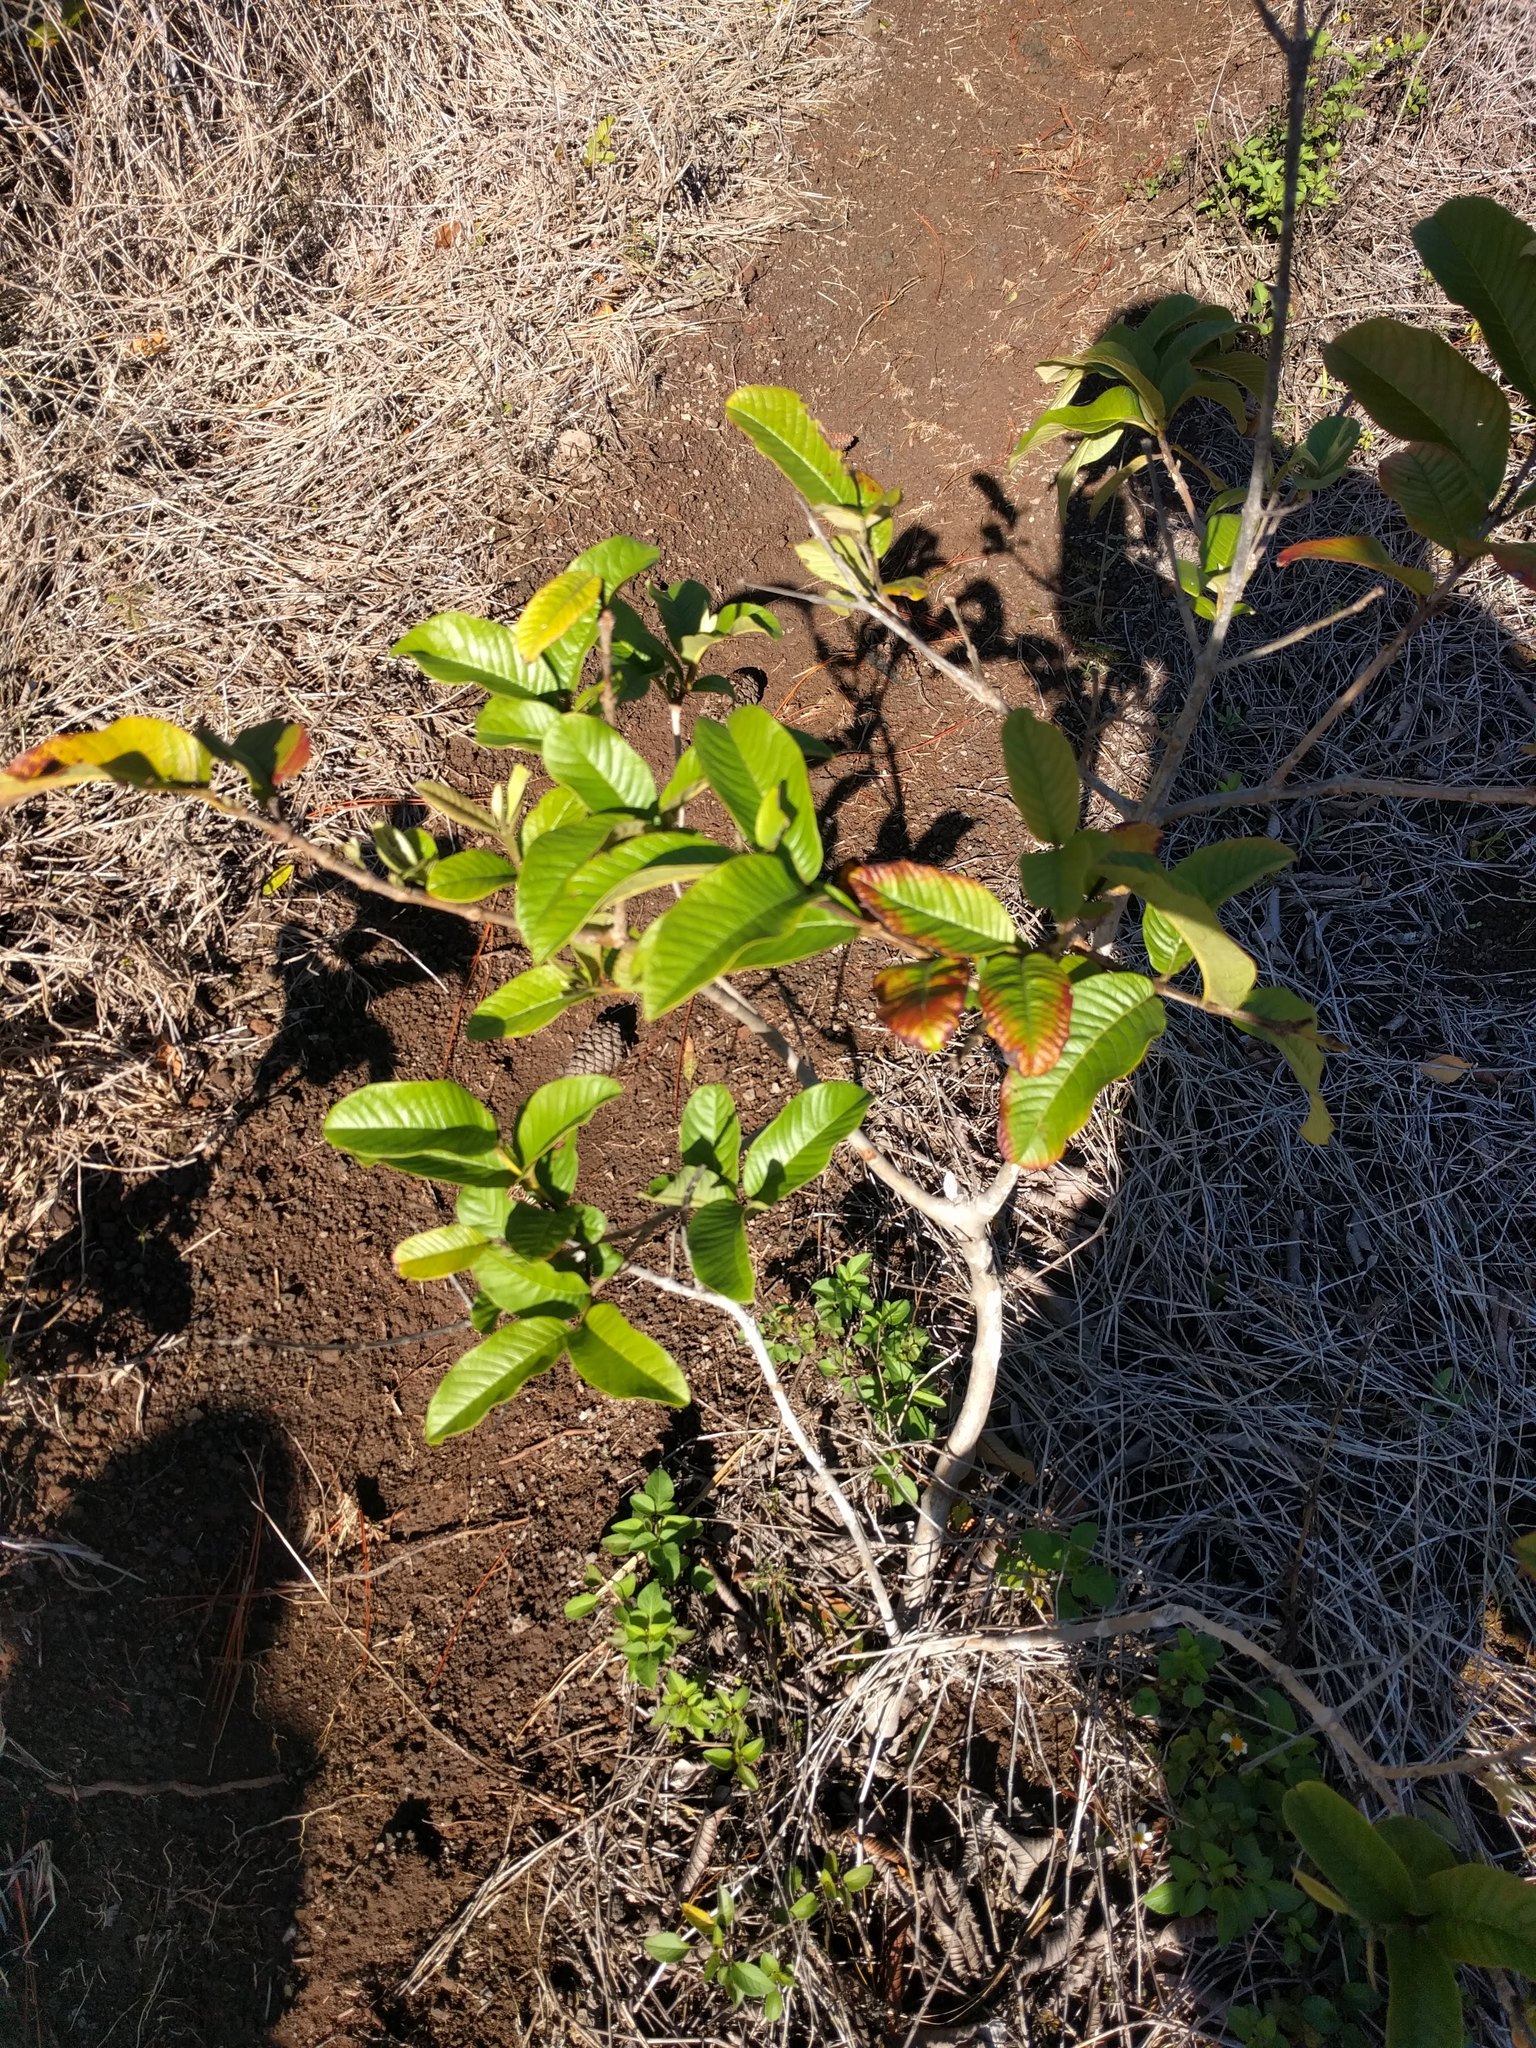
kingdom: Plantae
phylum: Tracheophyta
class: Magnoliopsida
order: Myrtales
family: Myrtaceae
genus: Psidium
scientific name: Psidium guajava
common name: Guava
